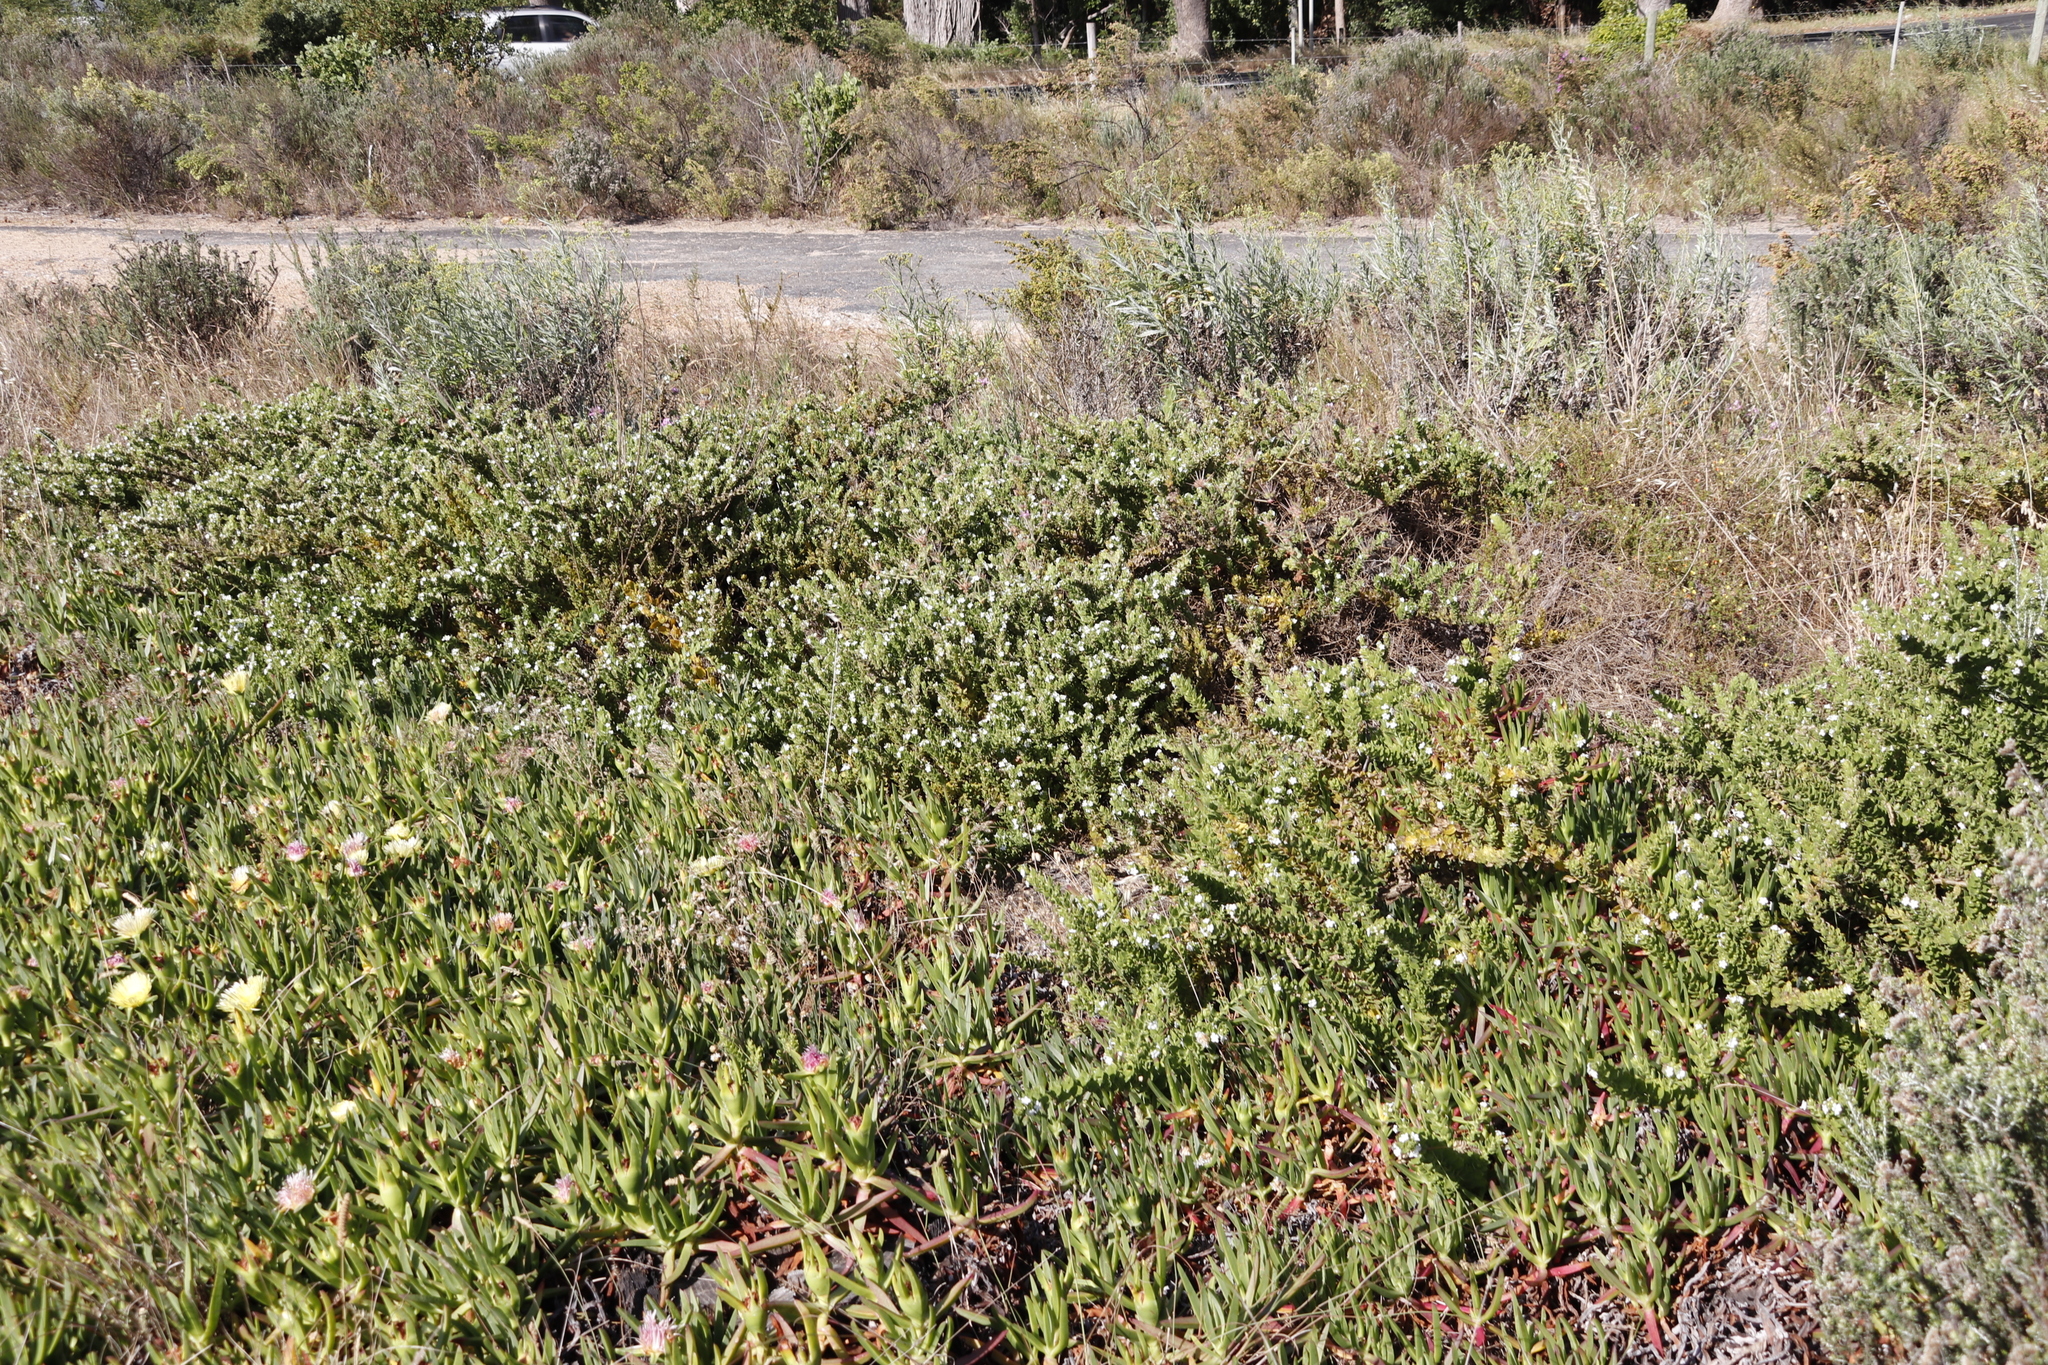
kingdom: Plantae
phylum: Tracheophyta
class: Magnoliopsida
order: Lamiales
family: Scrophulariaceae
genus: Oftia
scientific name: Oftia africana
